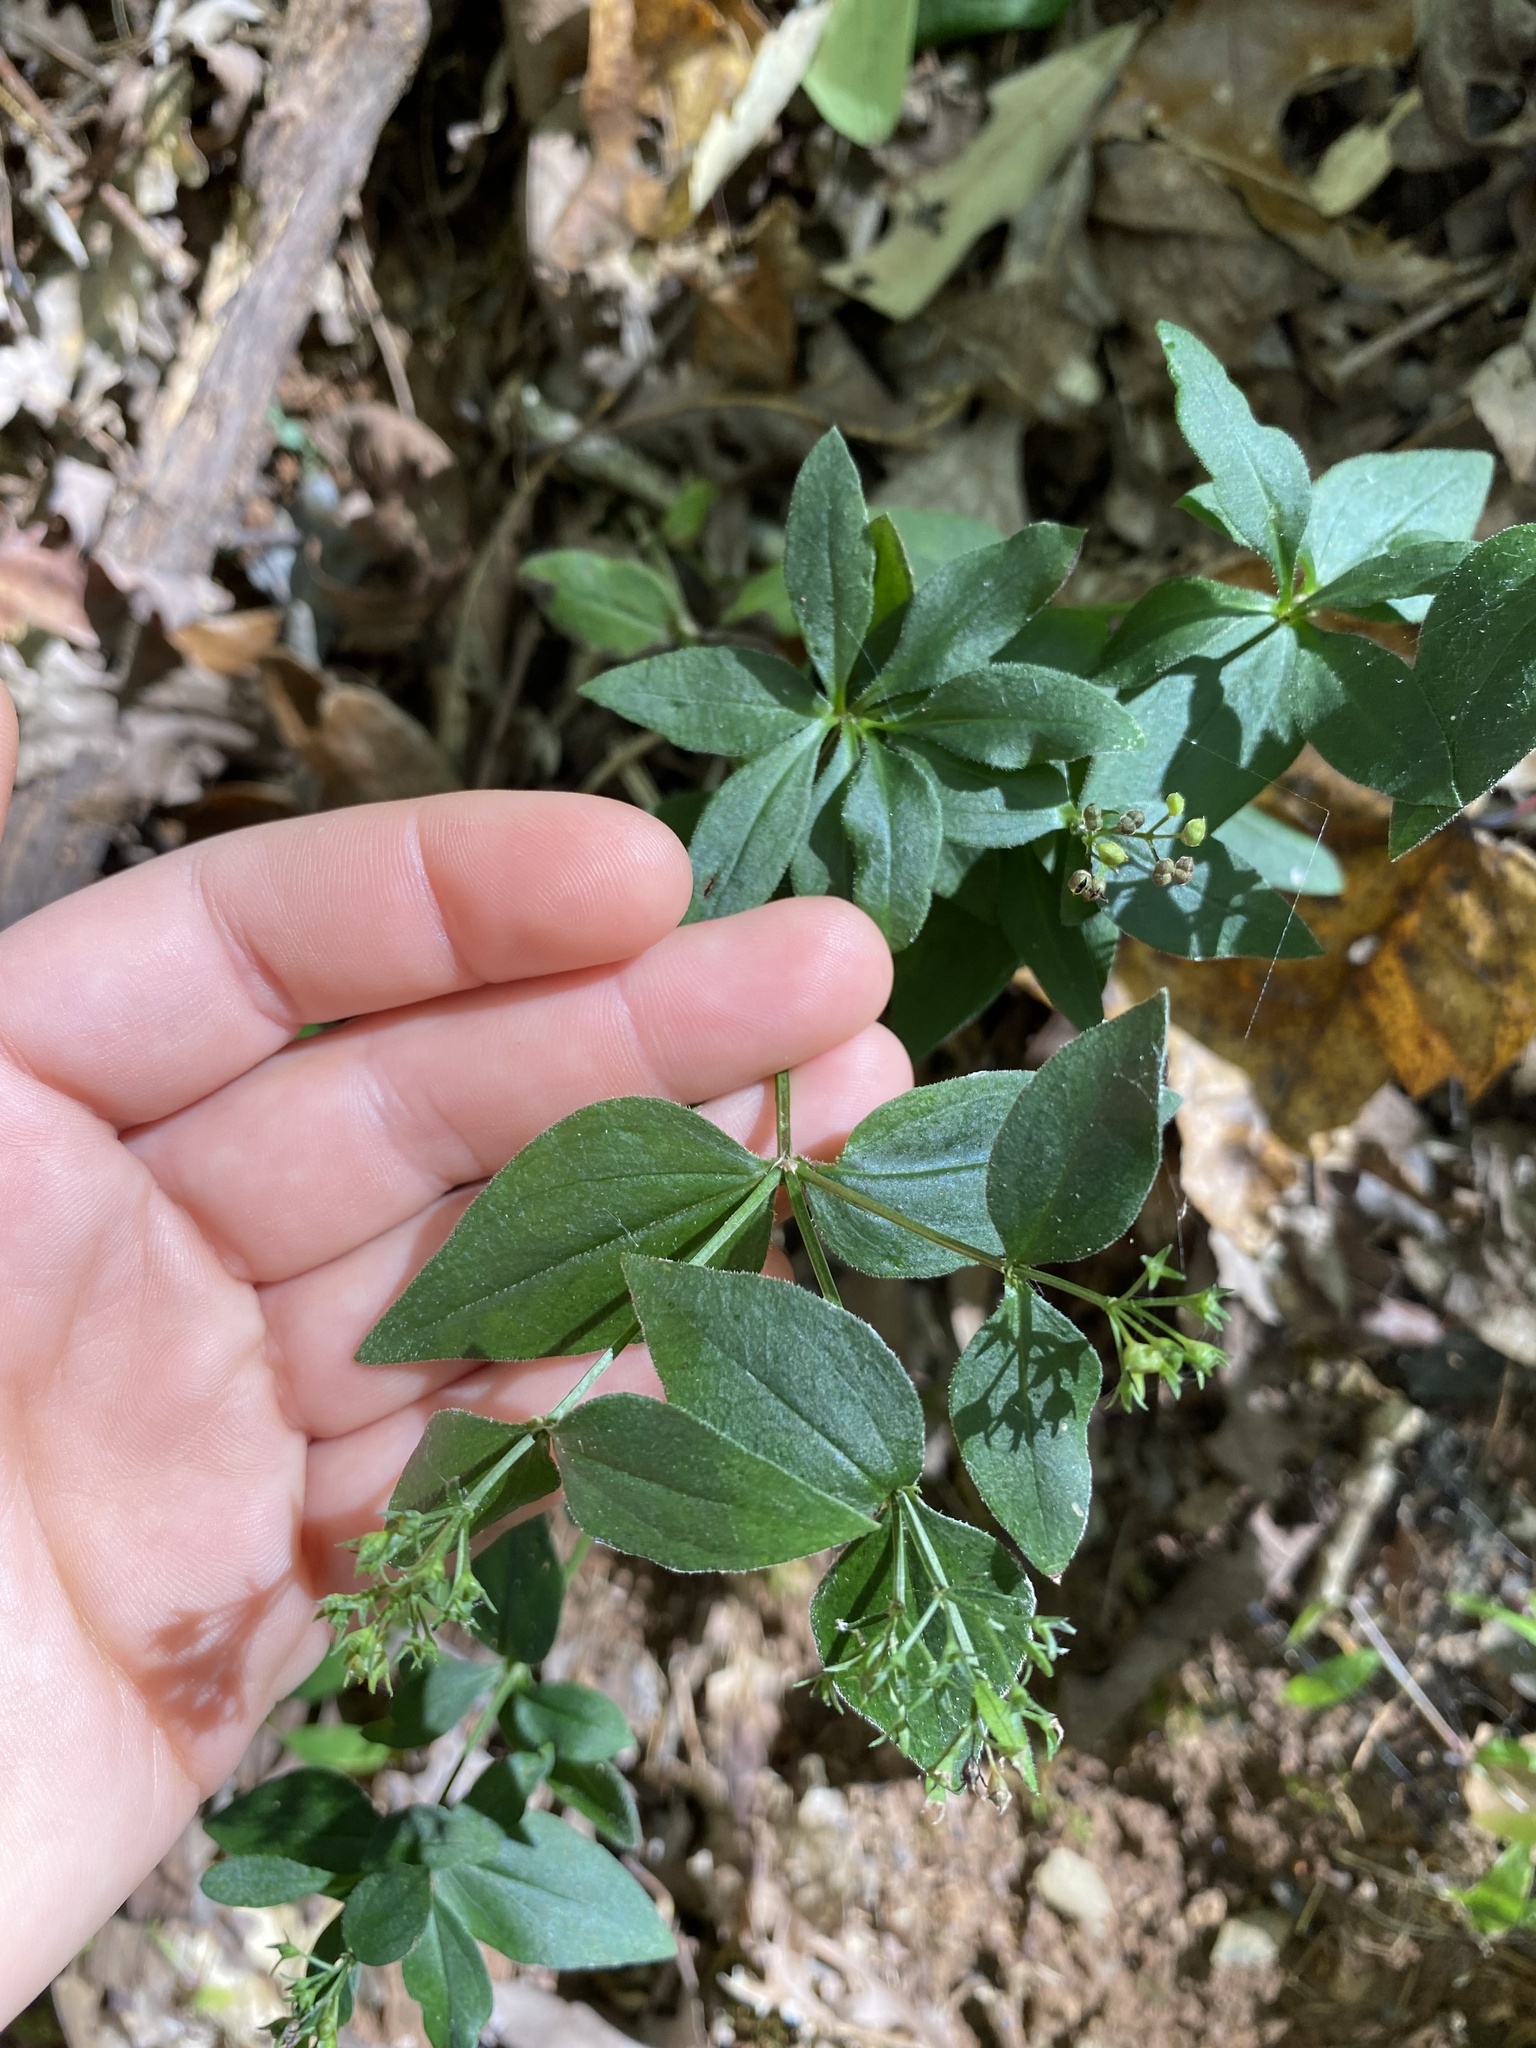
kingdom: Plantae
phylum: Tracheophyta
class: Magnoliopsida
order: Gentianales
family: Rubiaceae
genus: Houstonia
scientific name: Houstonia purpurea
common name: Summer bluet
